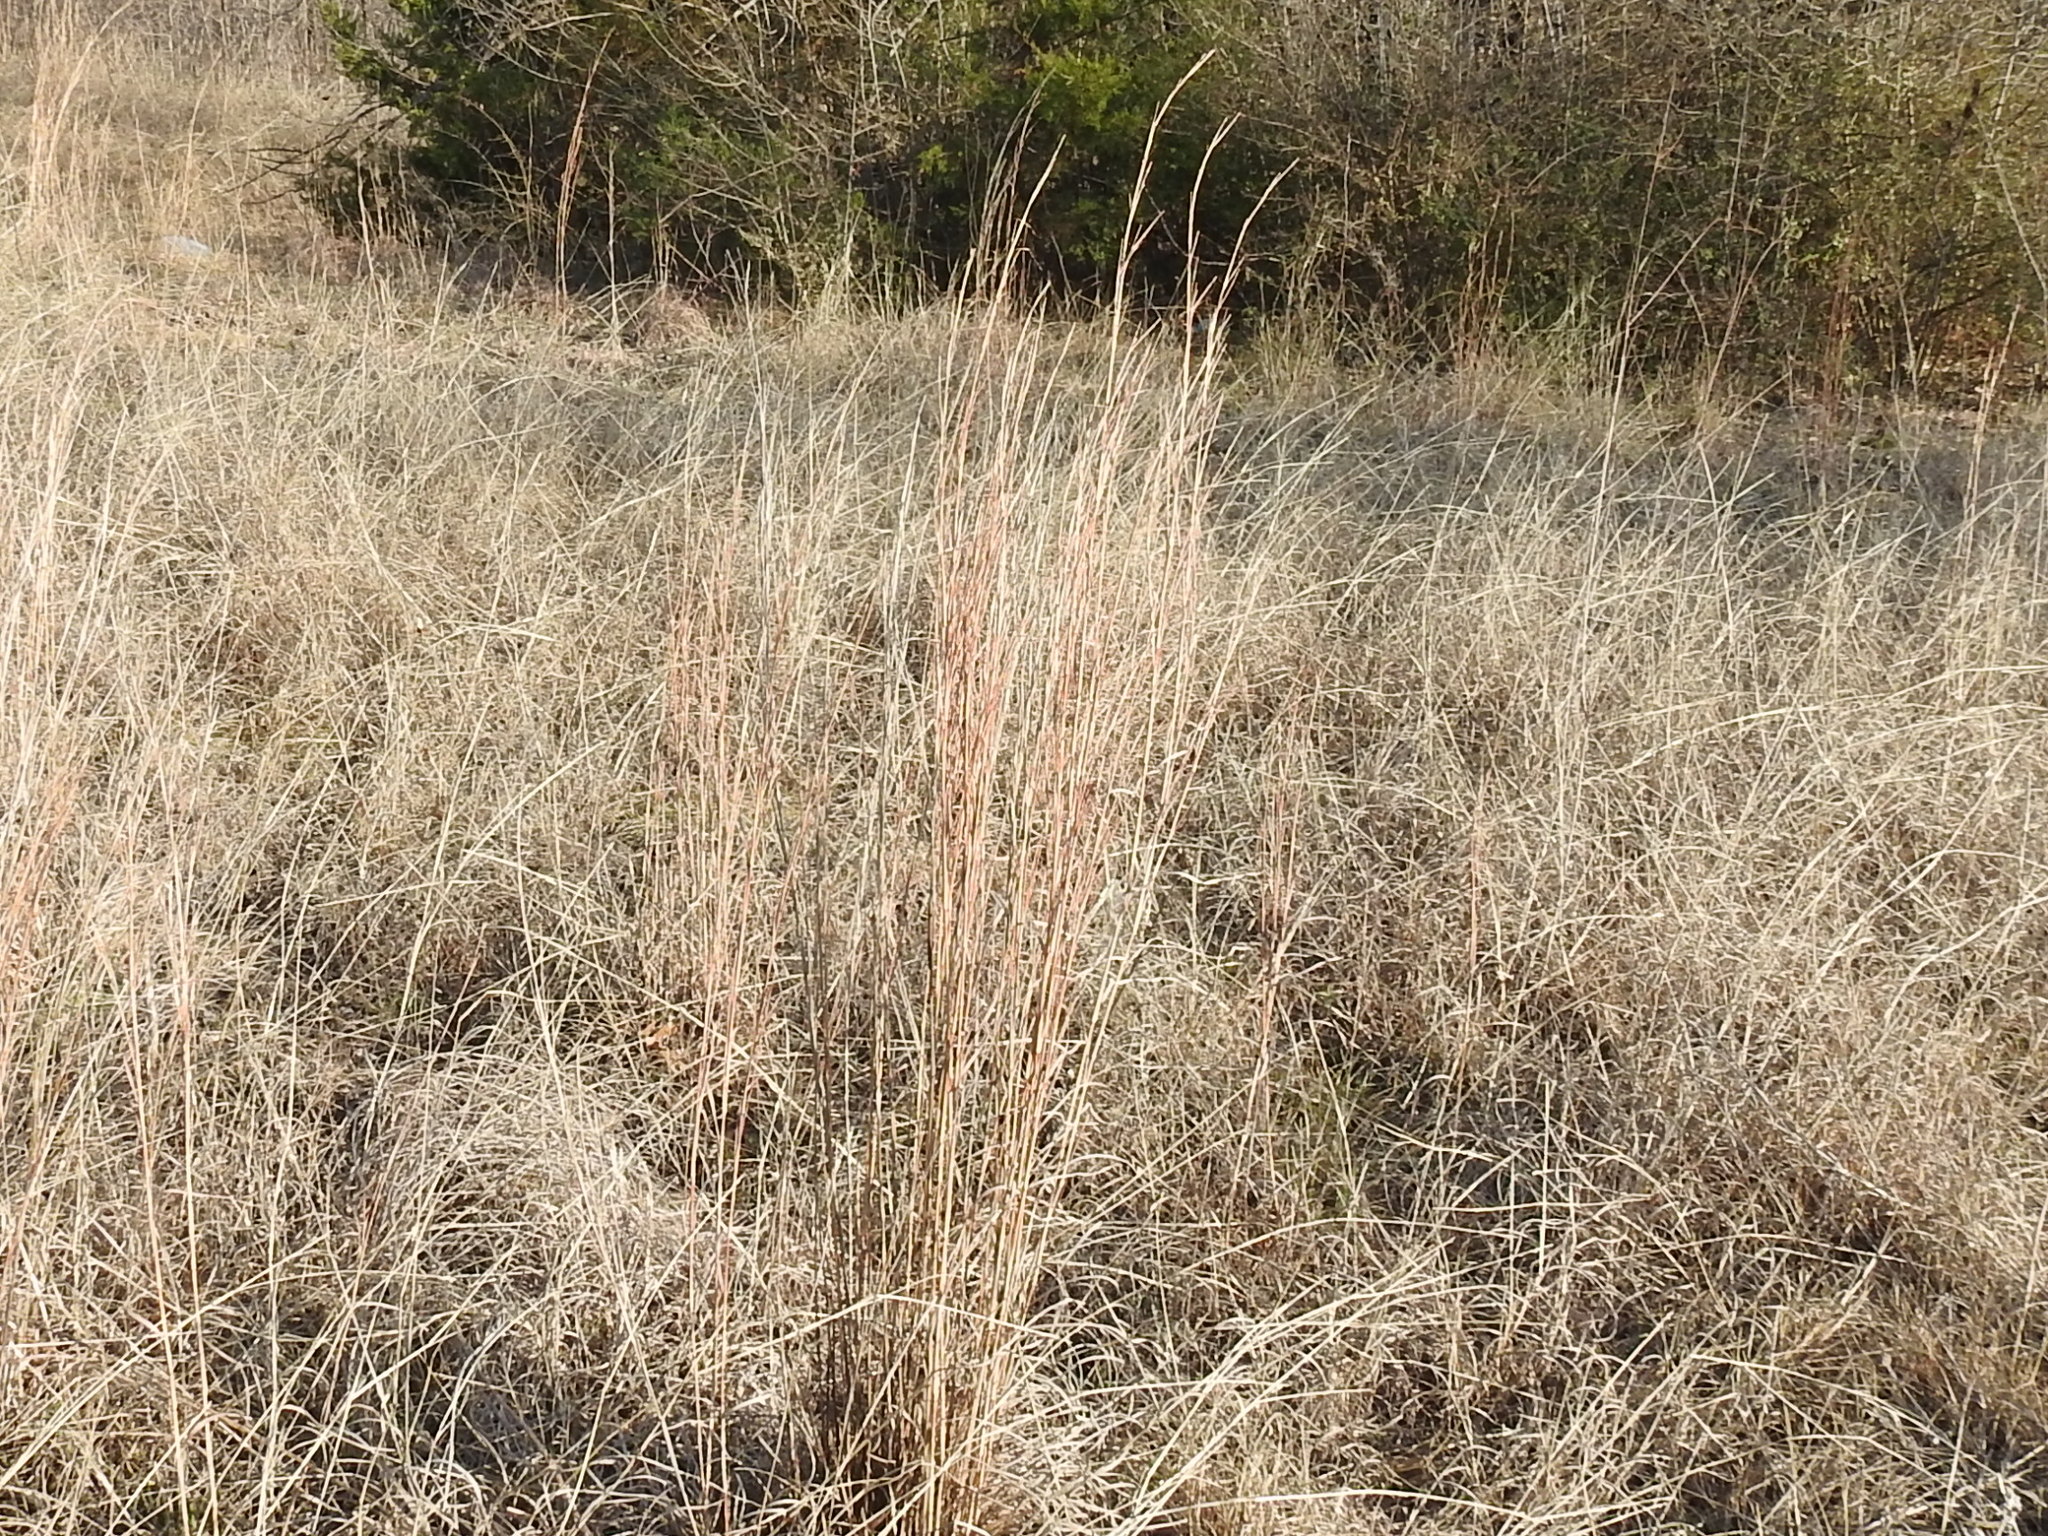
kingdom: Plantae
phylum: Tracheophyta
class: Liliopsida
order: Poales
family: Poaceae
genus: Schizachyrium
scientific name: Schizachyrium scoparium
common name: Little bluestem
